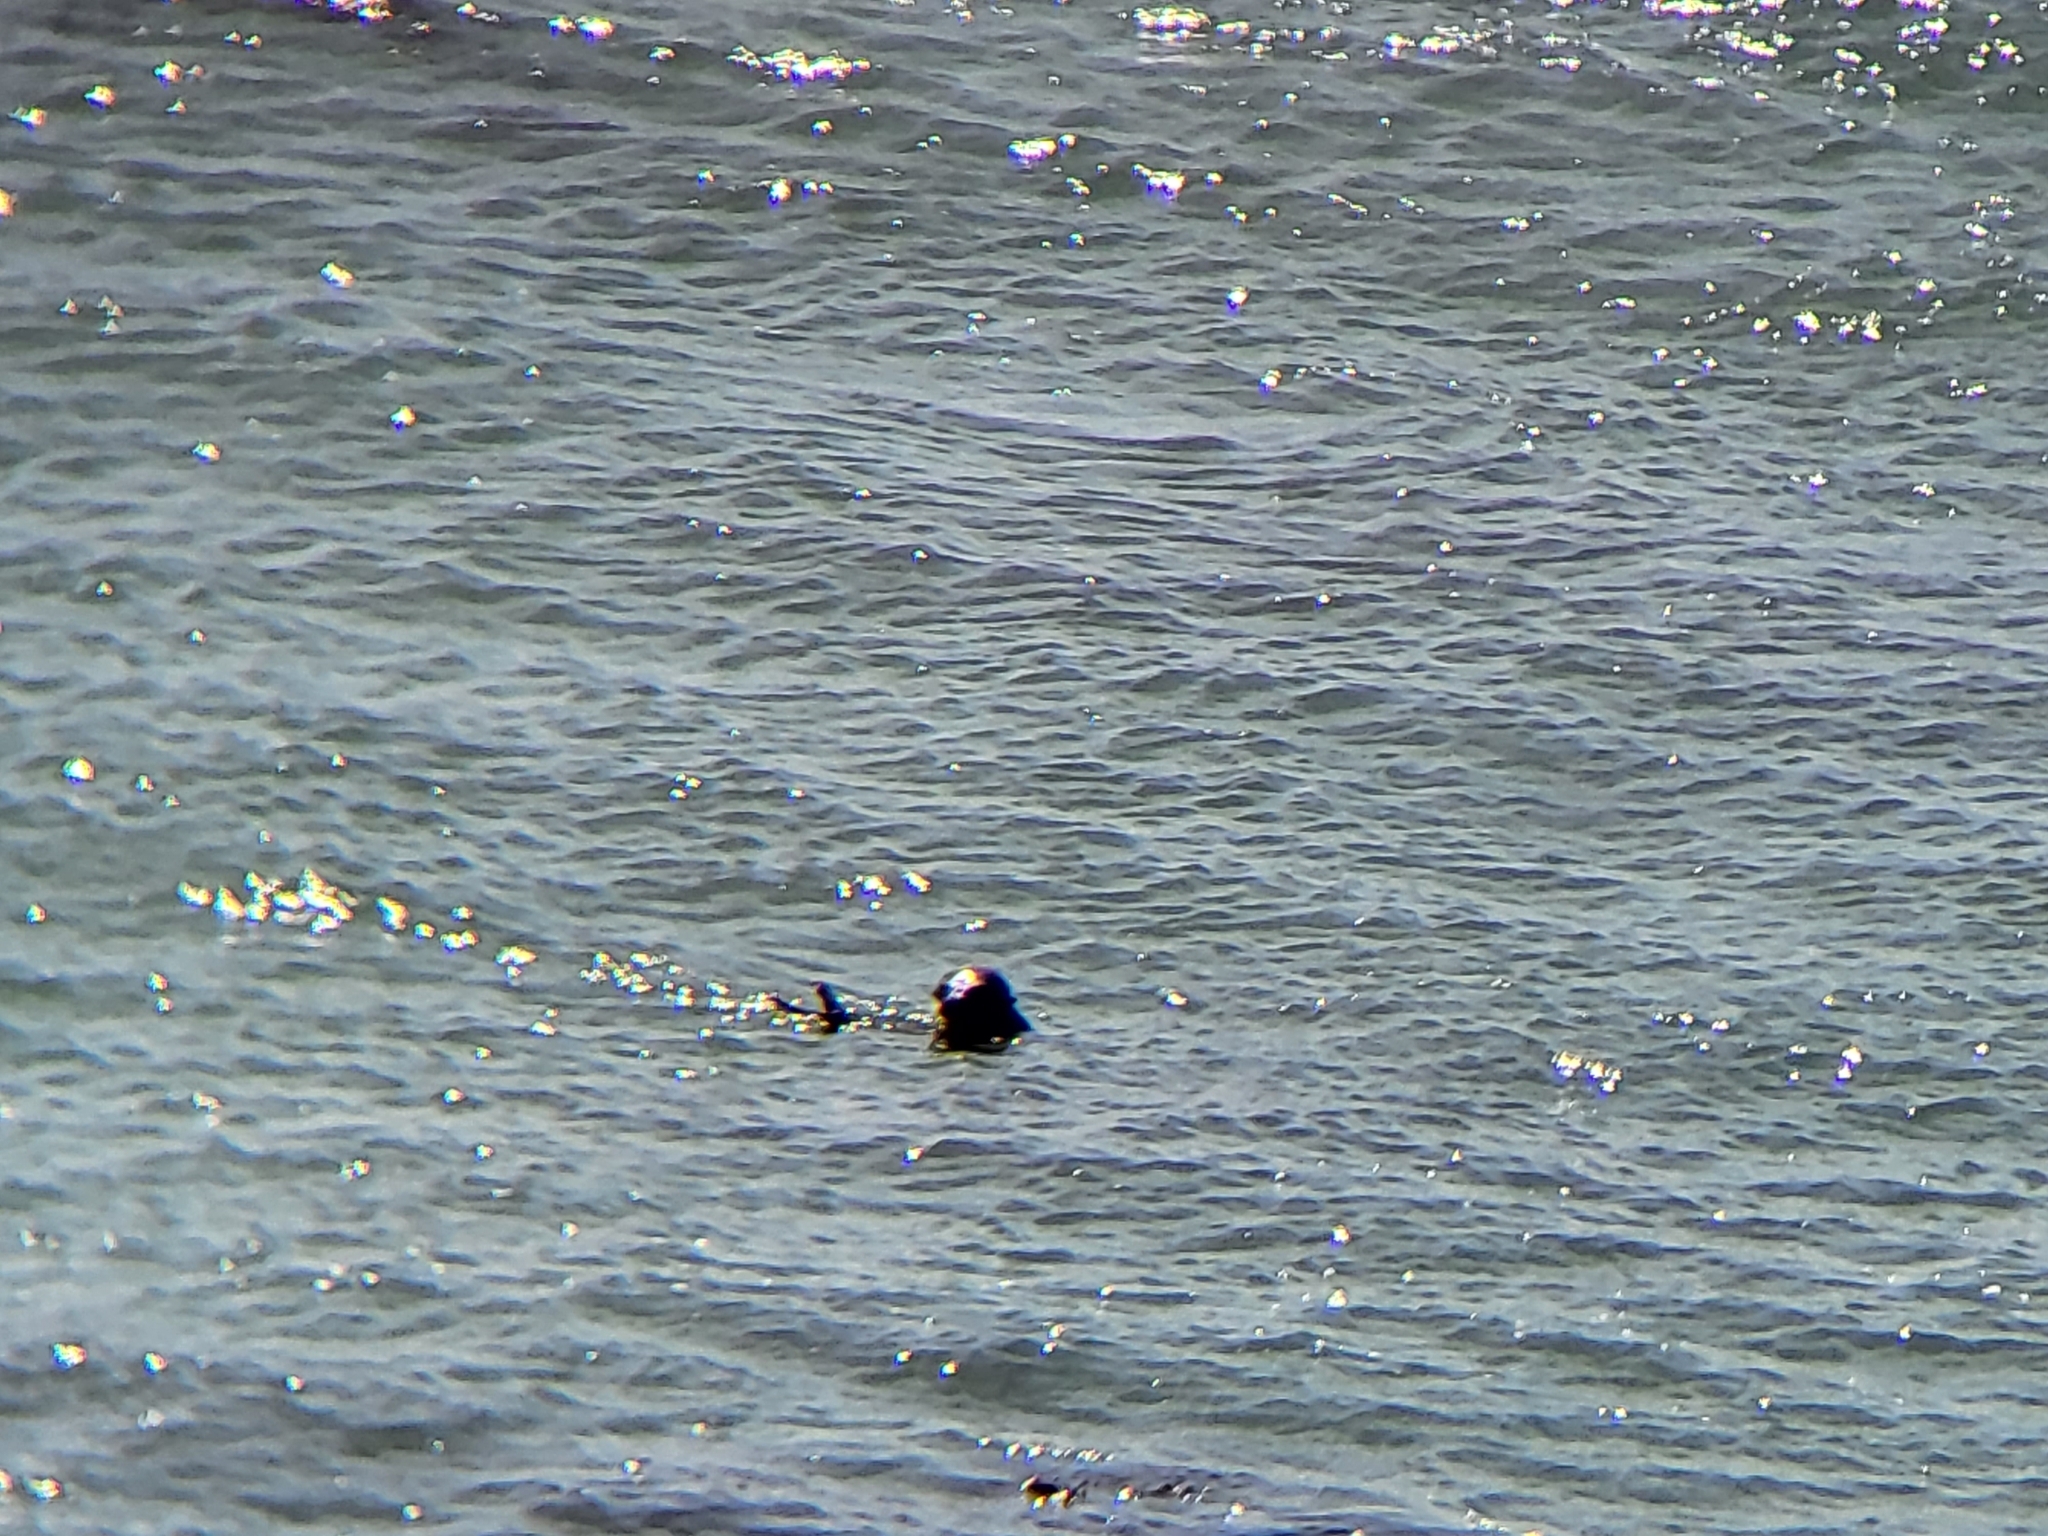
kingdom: Animalia
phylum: Chordata
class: Mammalia
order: Carnivora
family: Mustelidae
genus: Enhydra
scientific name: Enhydra lutris
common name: Sea otter
